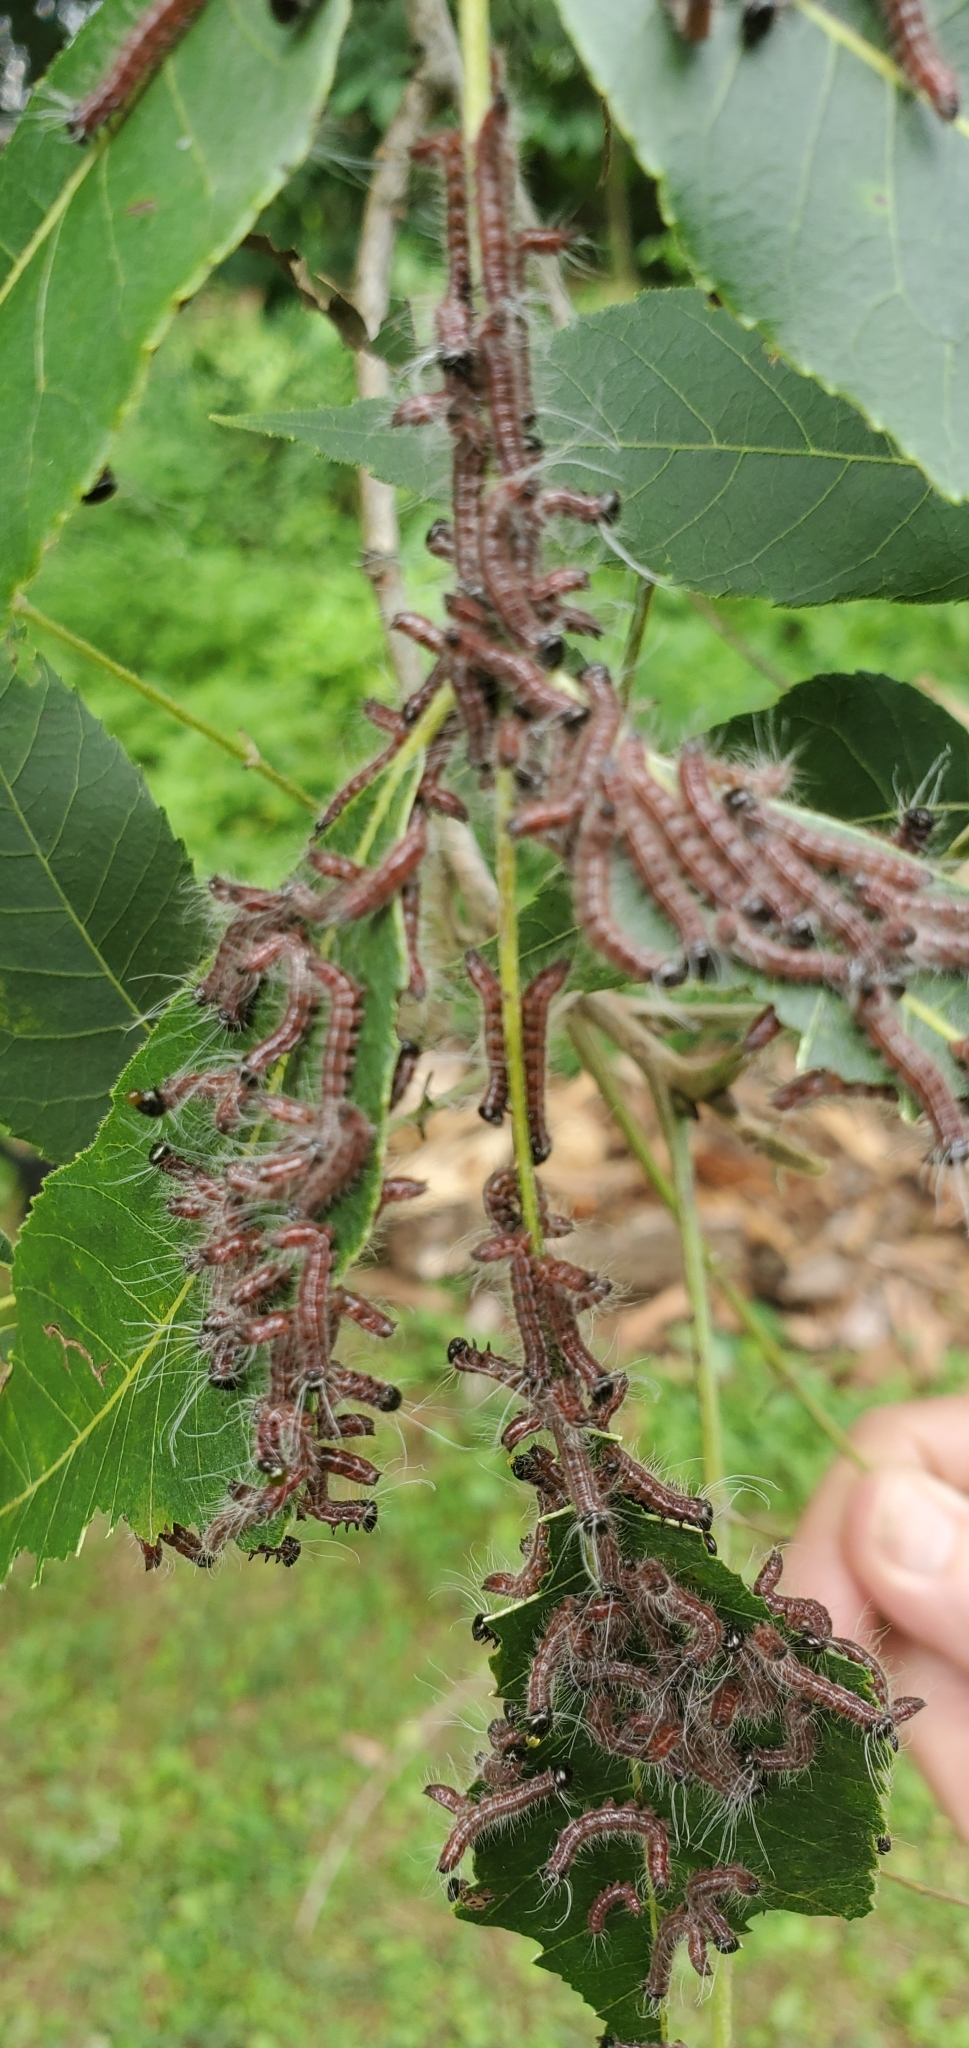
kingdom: Animalia
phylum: Arthropoda
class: Insecta
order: Lepidoptera
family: Notodontidae
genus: Datana
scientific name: Datana integerrima
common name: Walnut caterpillar
